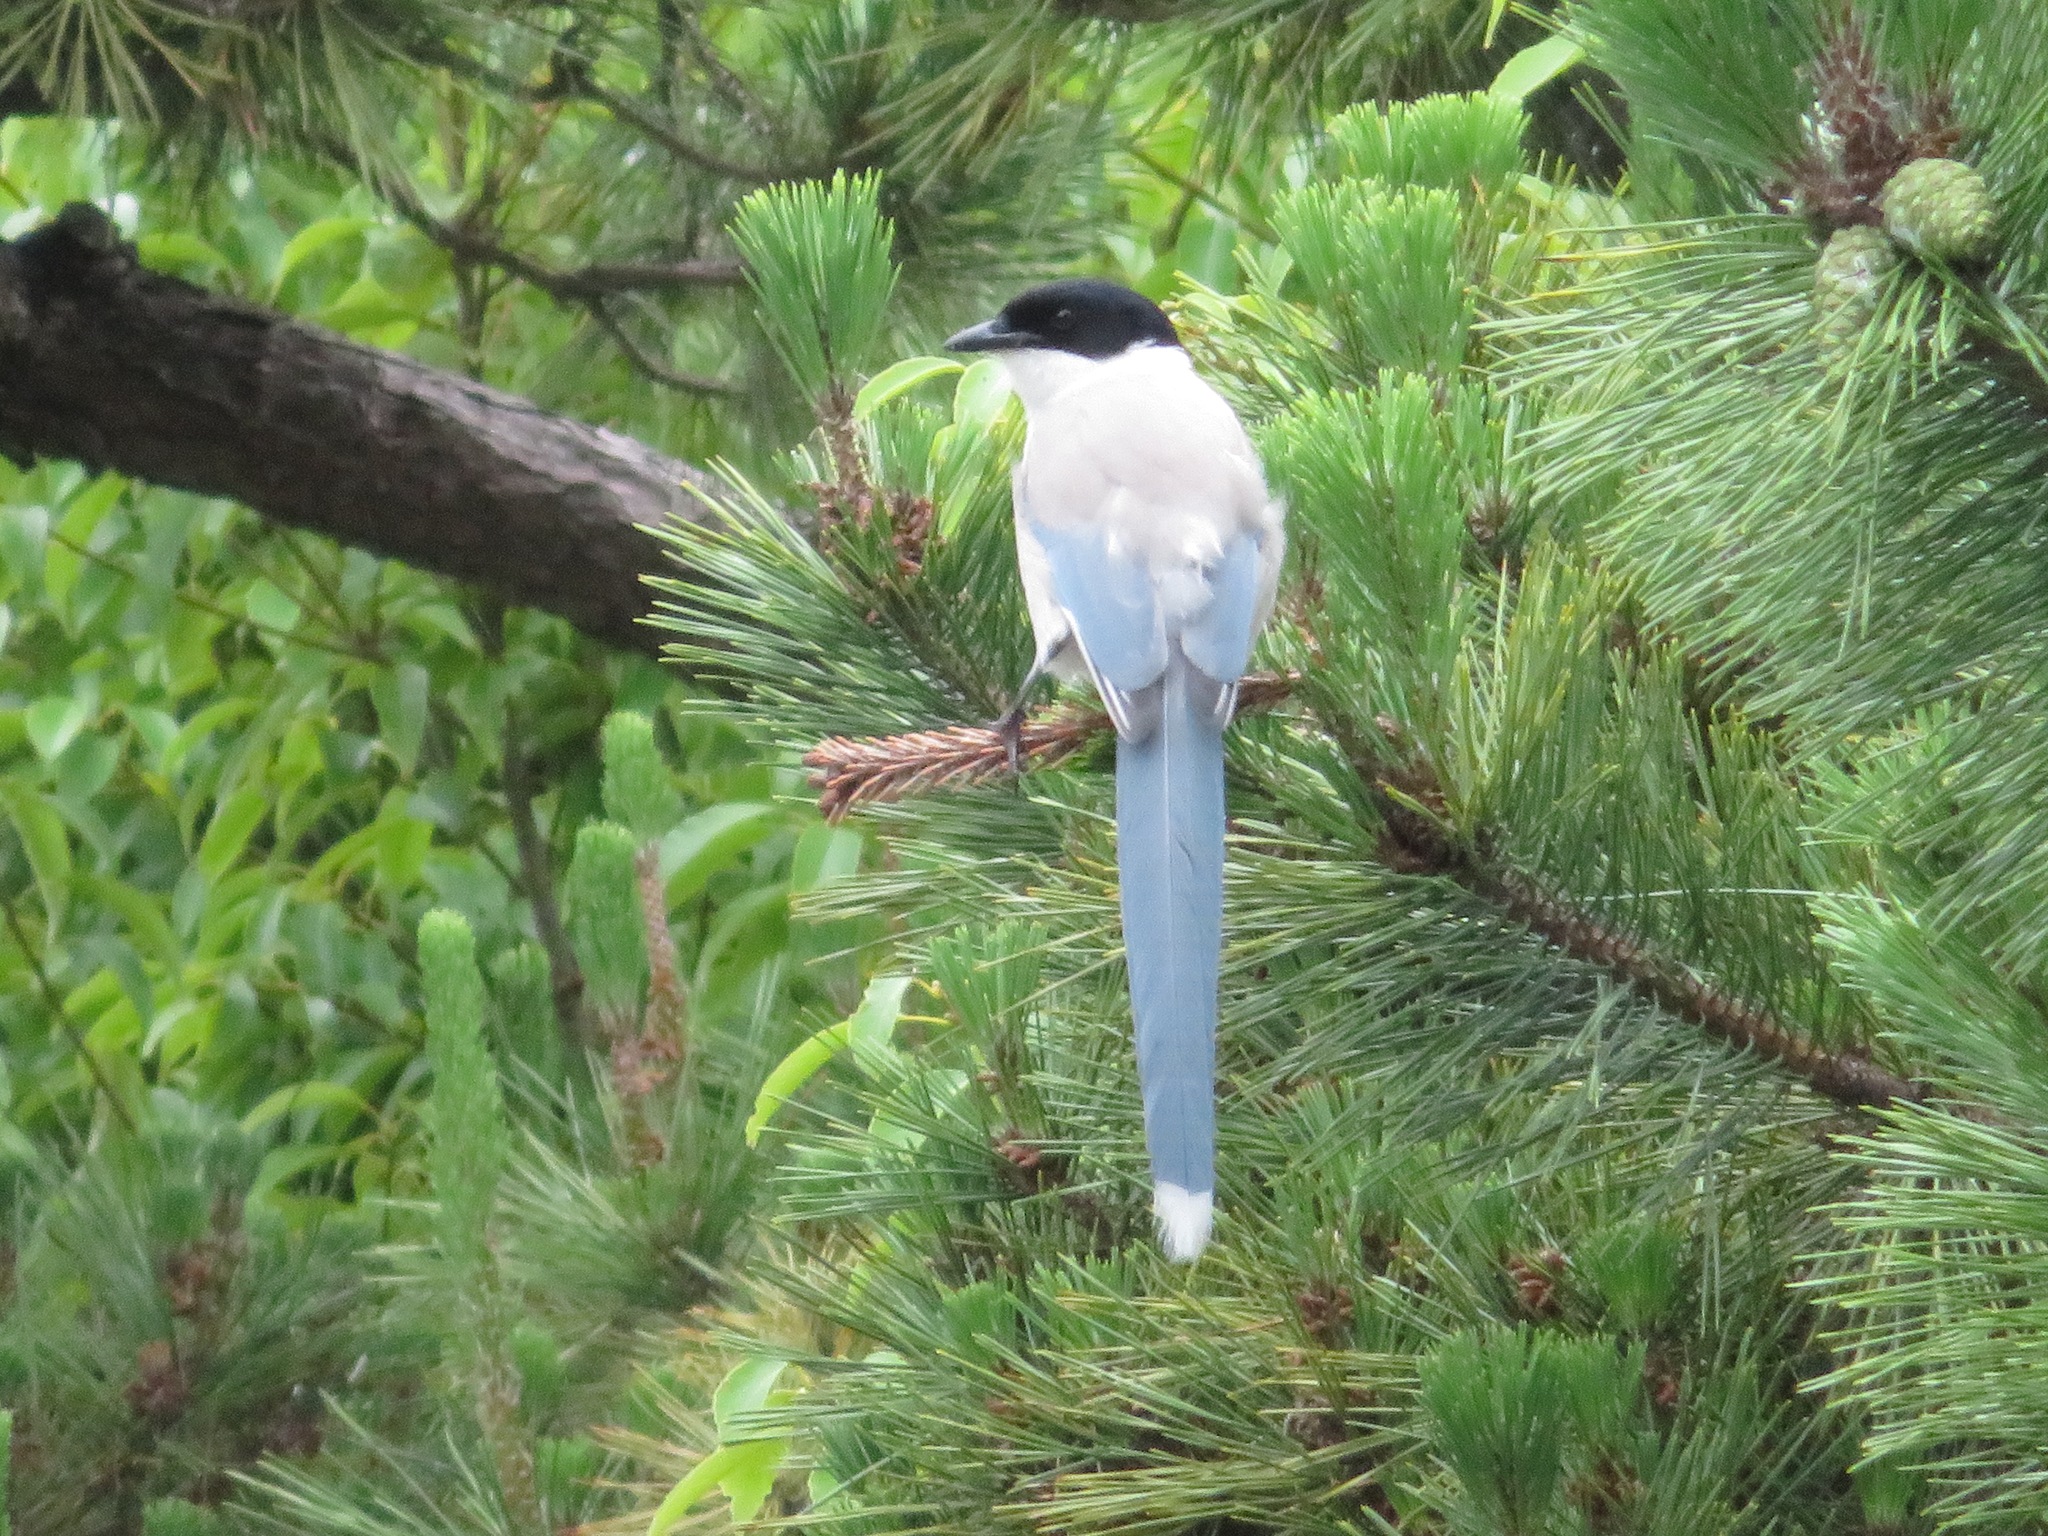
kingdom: Animalia
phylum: Chordata
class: Aves
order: Passeriformes
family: Corvidae
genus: Cyanopica
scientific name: Cyanopica cyanus
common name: Azure-winged magpie
